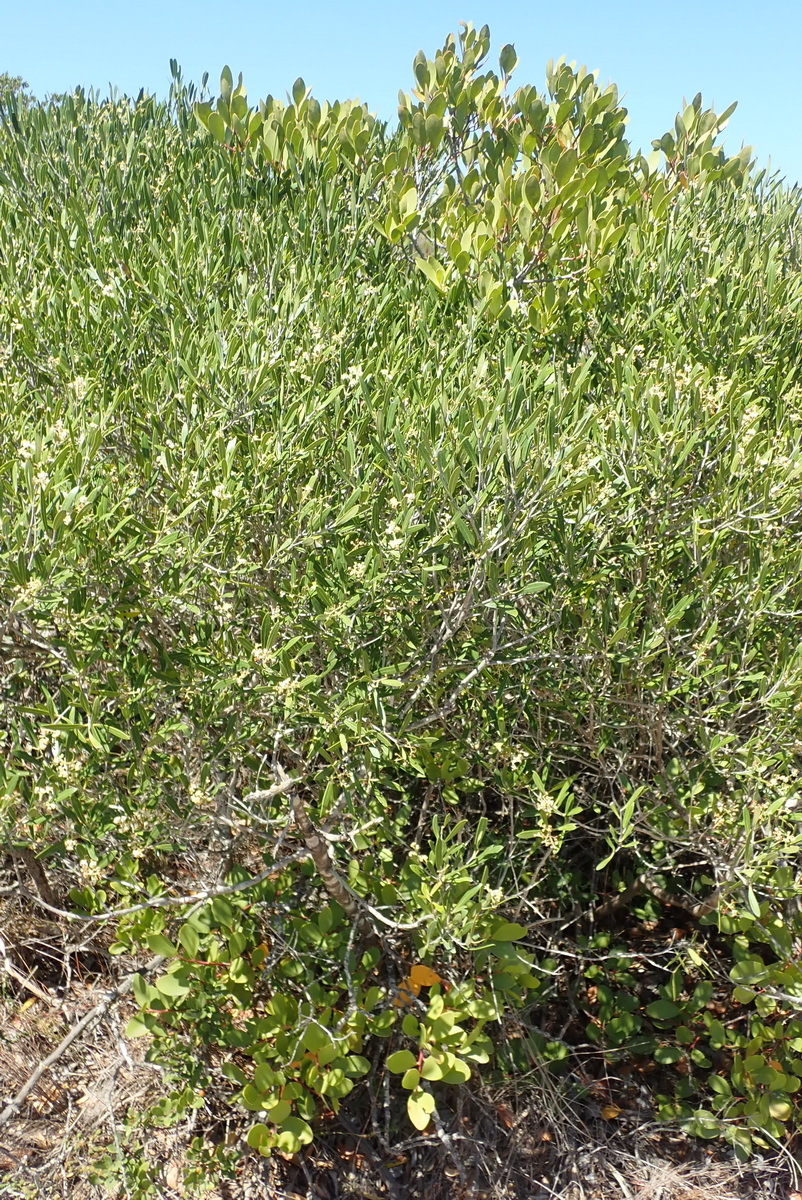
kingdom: Plantae
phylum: Tracheophyta
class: Magnoliopsida
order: Lamiales
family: Oleaceae
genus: Olea
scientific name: Olea exasperata
